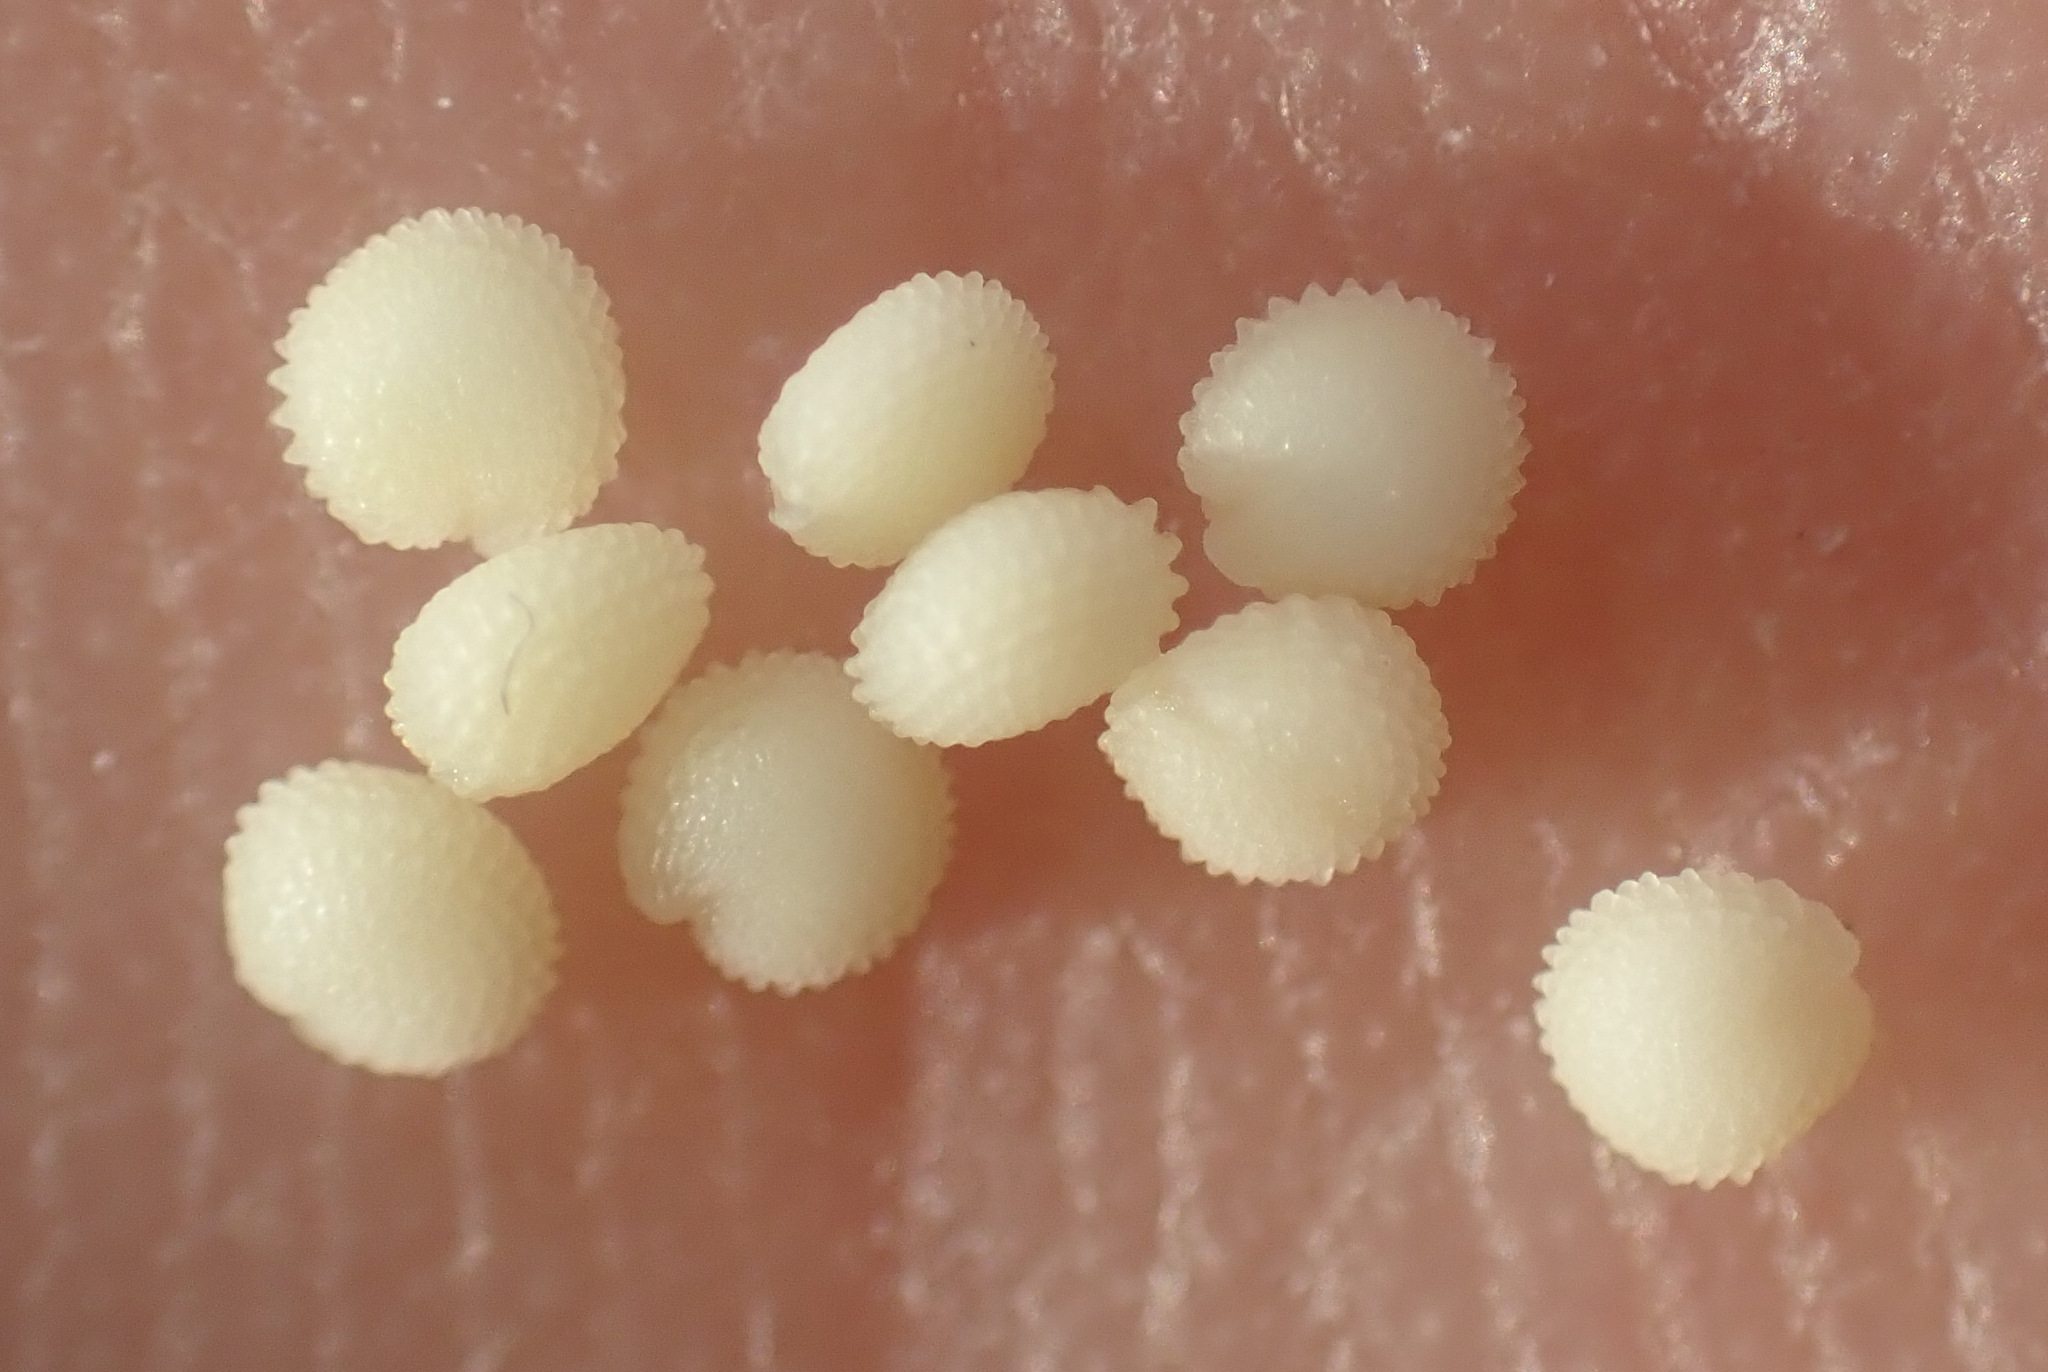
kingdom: Plantae
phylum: Tracheophyta
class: Magnoliopsida
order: Caryophyllales
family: Caryophyllaceae
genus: Stellaria
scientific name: Stellaria media
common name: Common chickweed
